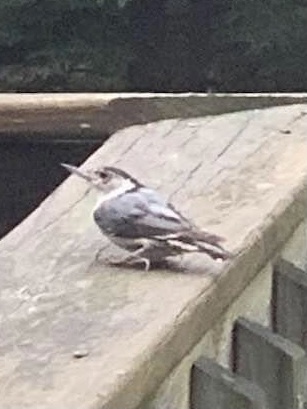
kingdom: Animalia
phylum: Chordata
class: Aves
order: Passeriformes
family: Sittidae
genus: Sitta
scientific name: Sitta carolinensis
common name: White-breasted nuthatch
